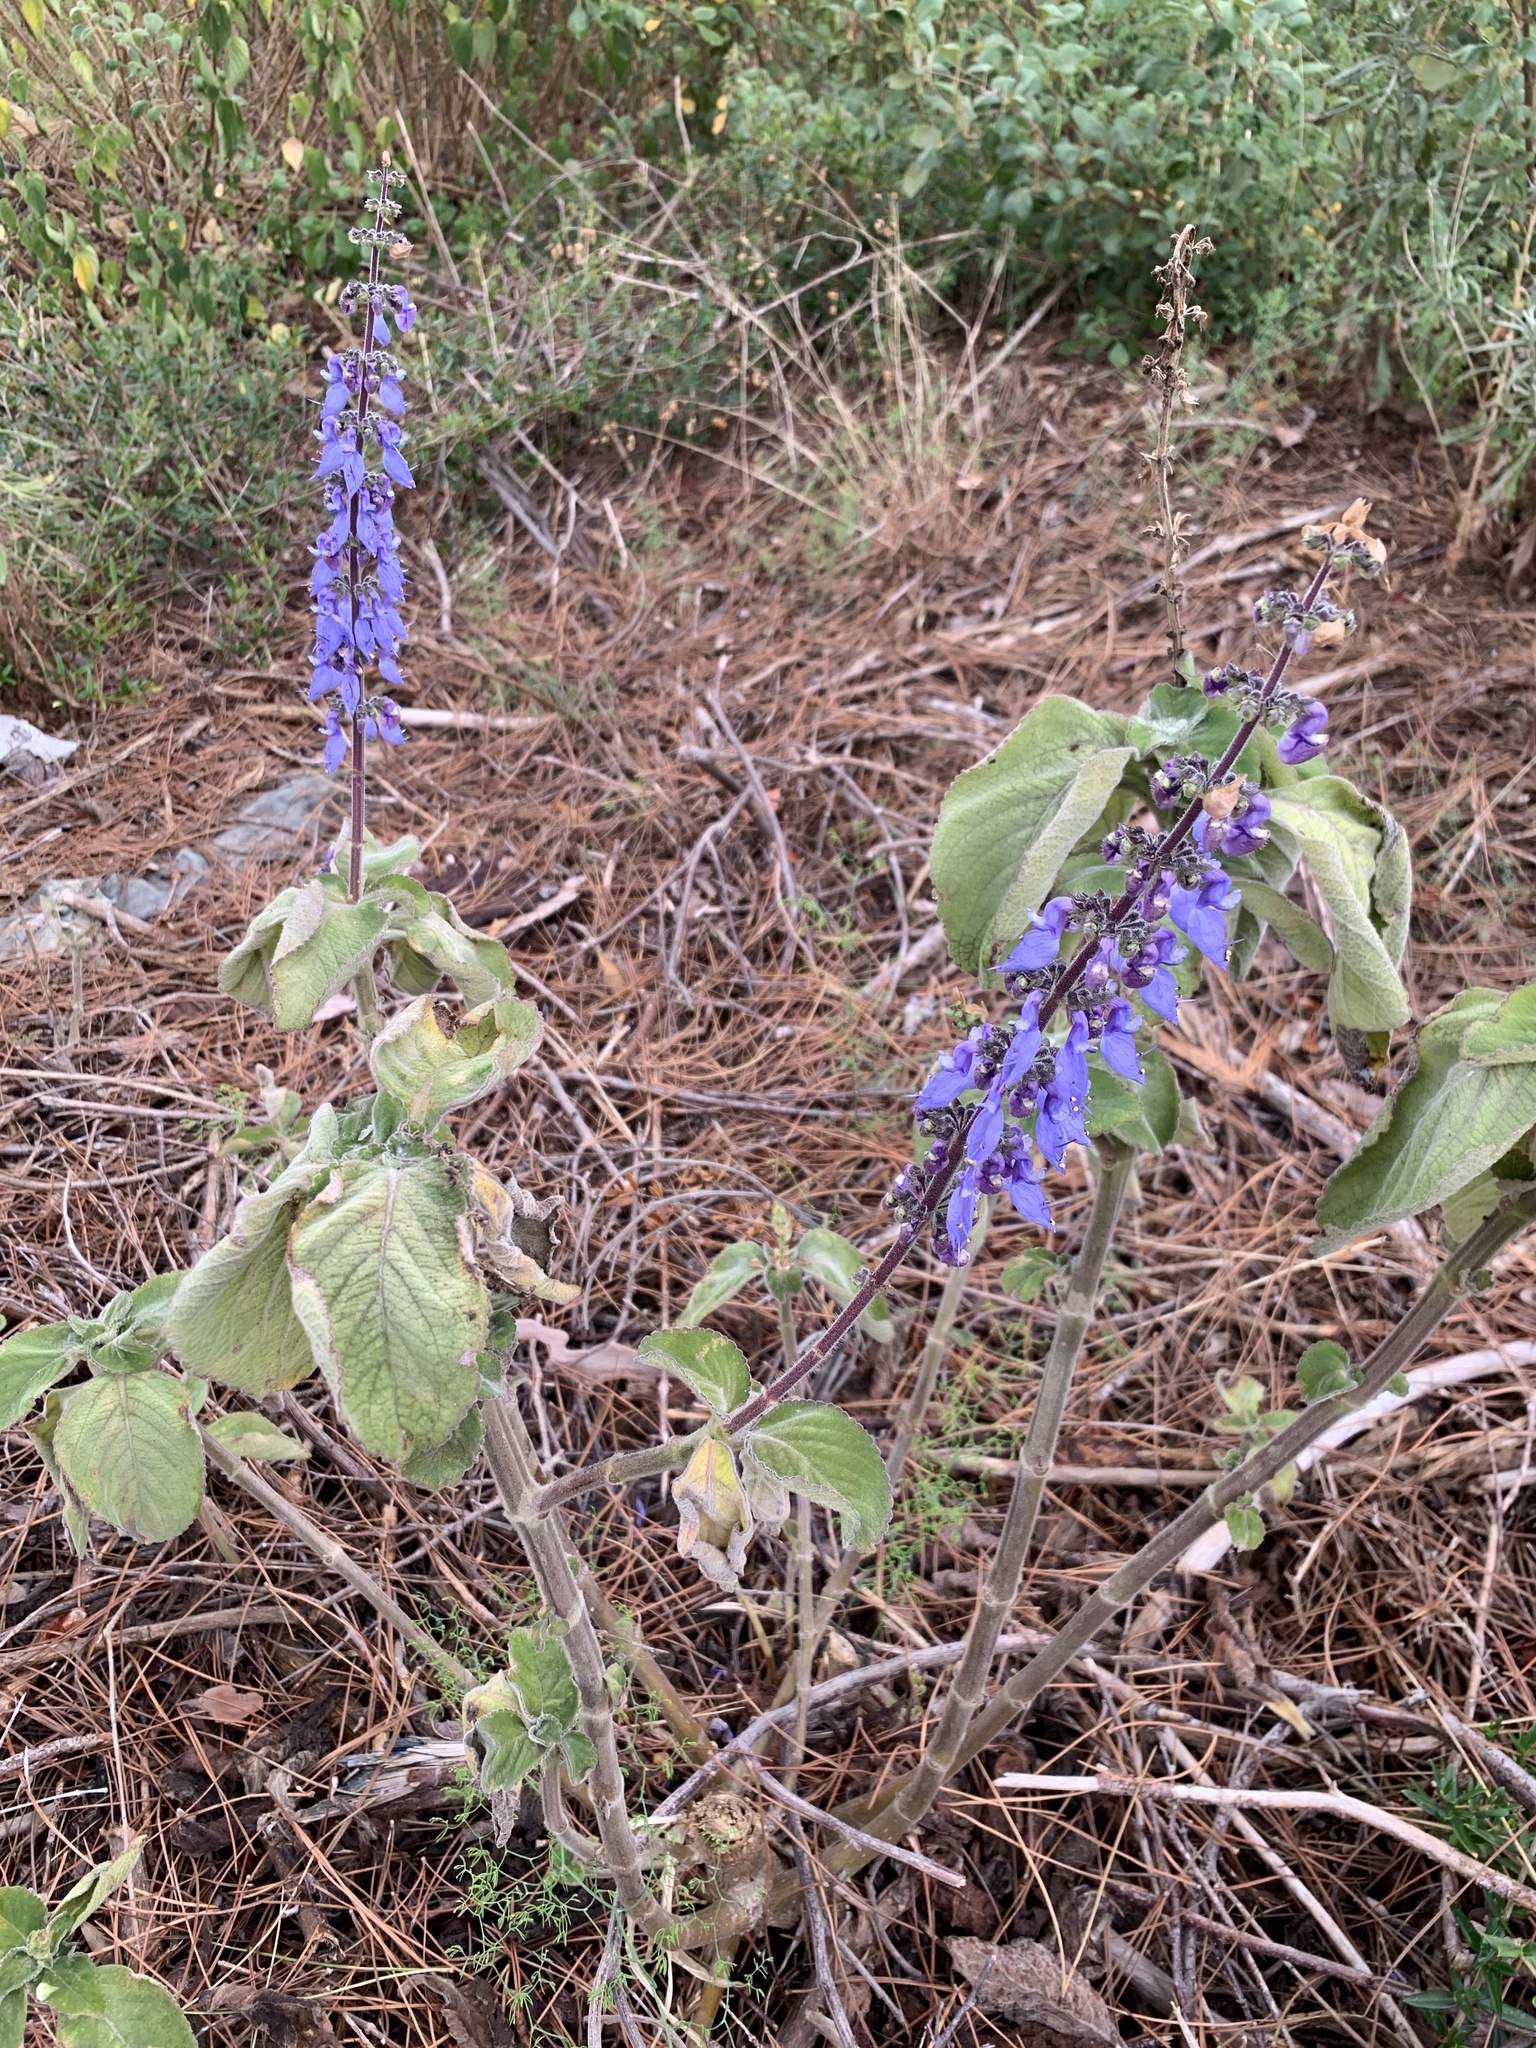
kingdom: Plantae
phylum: Tracheophyta
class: Magnoliopsida
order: Lamiales
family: Lamiaceae
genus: Coleus
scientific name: Coleus barbatus
